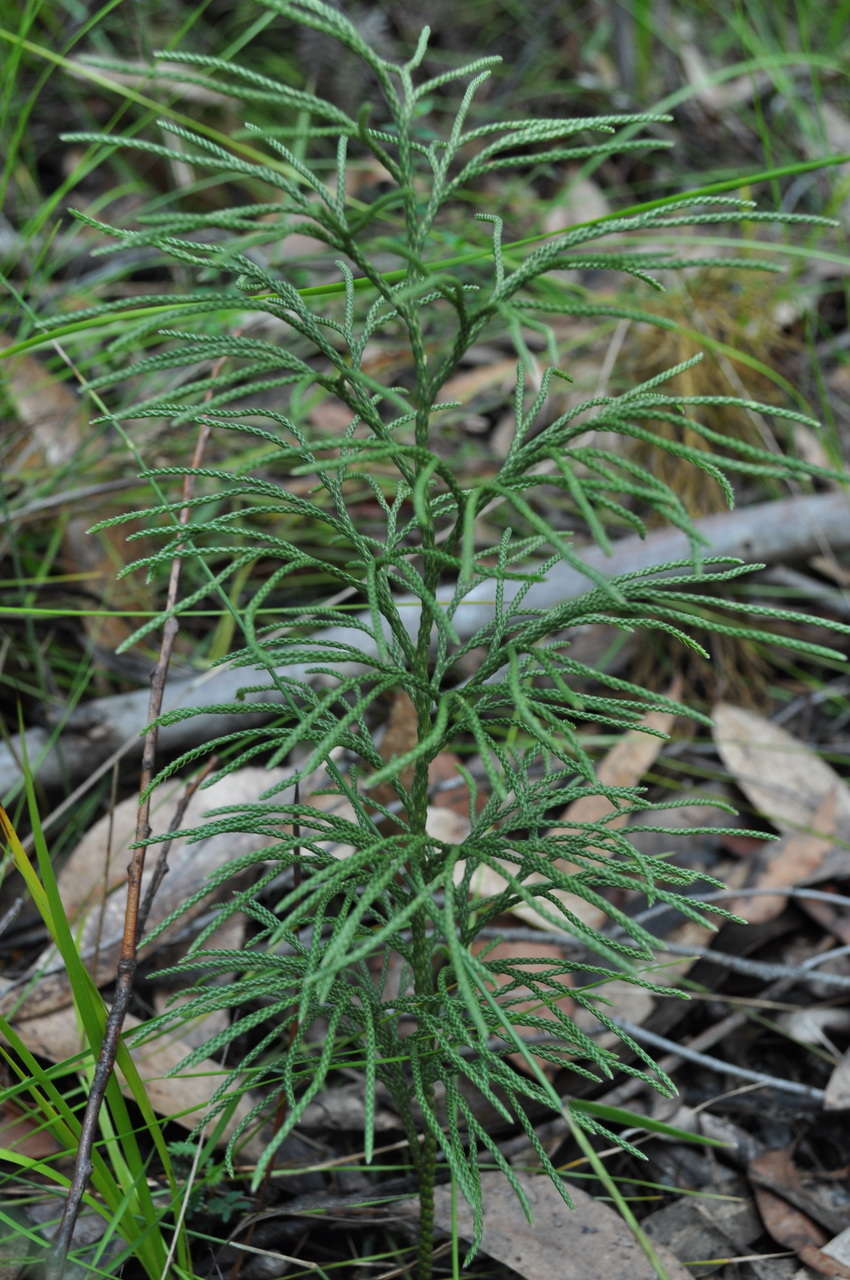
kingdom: Plantae
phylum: Tracheophyta
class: Lycopodiopsida
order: Lycopodiales
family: Lycopodiaceae
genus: Pseudolycopodium
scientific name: Pseudolycopodium densum
